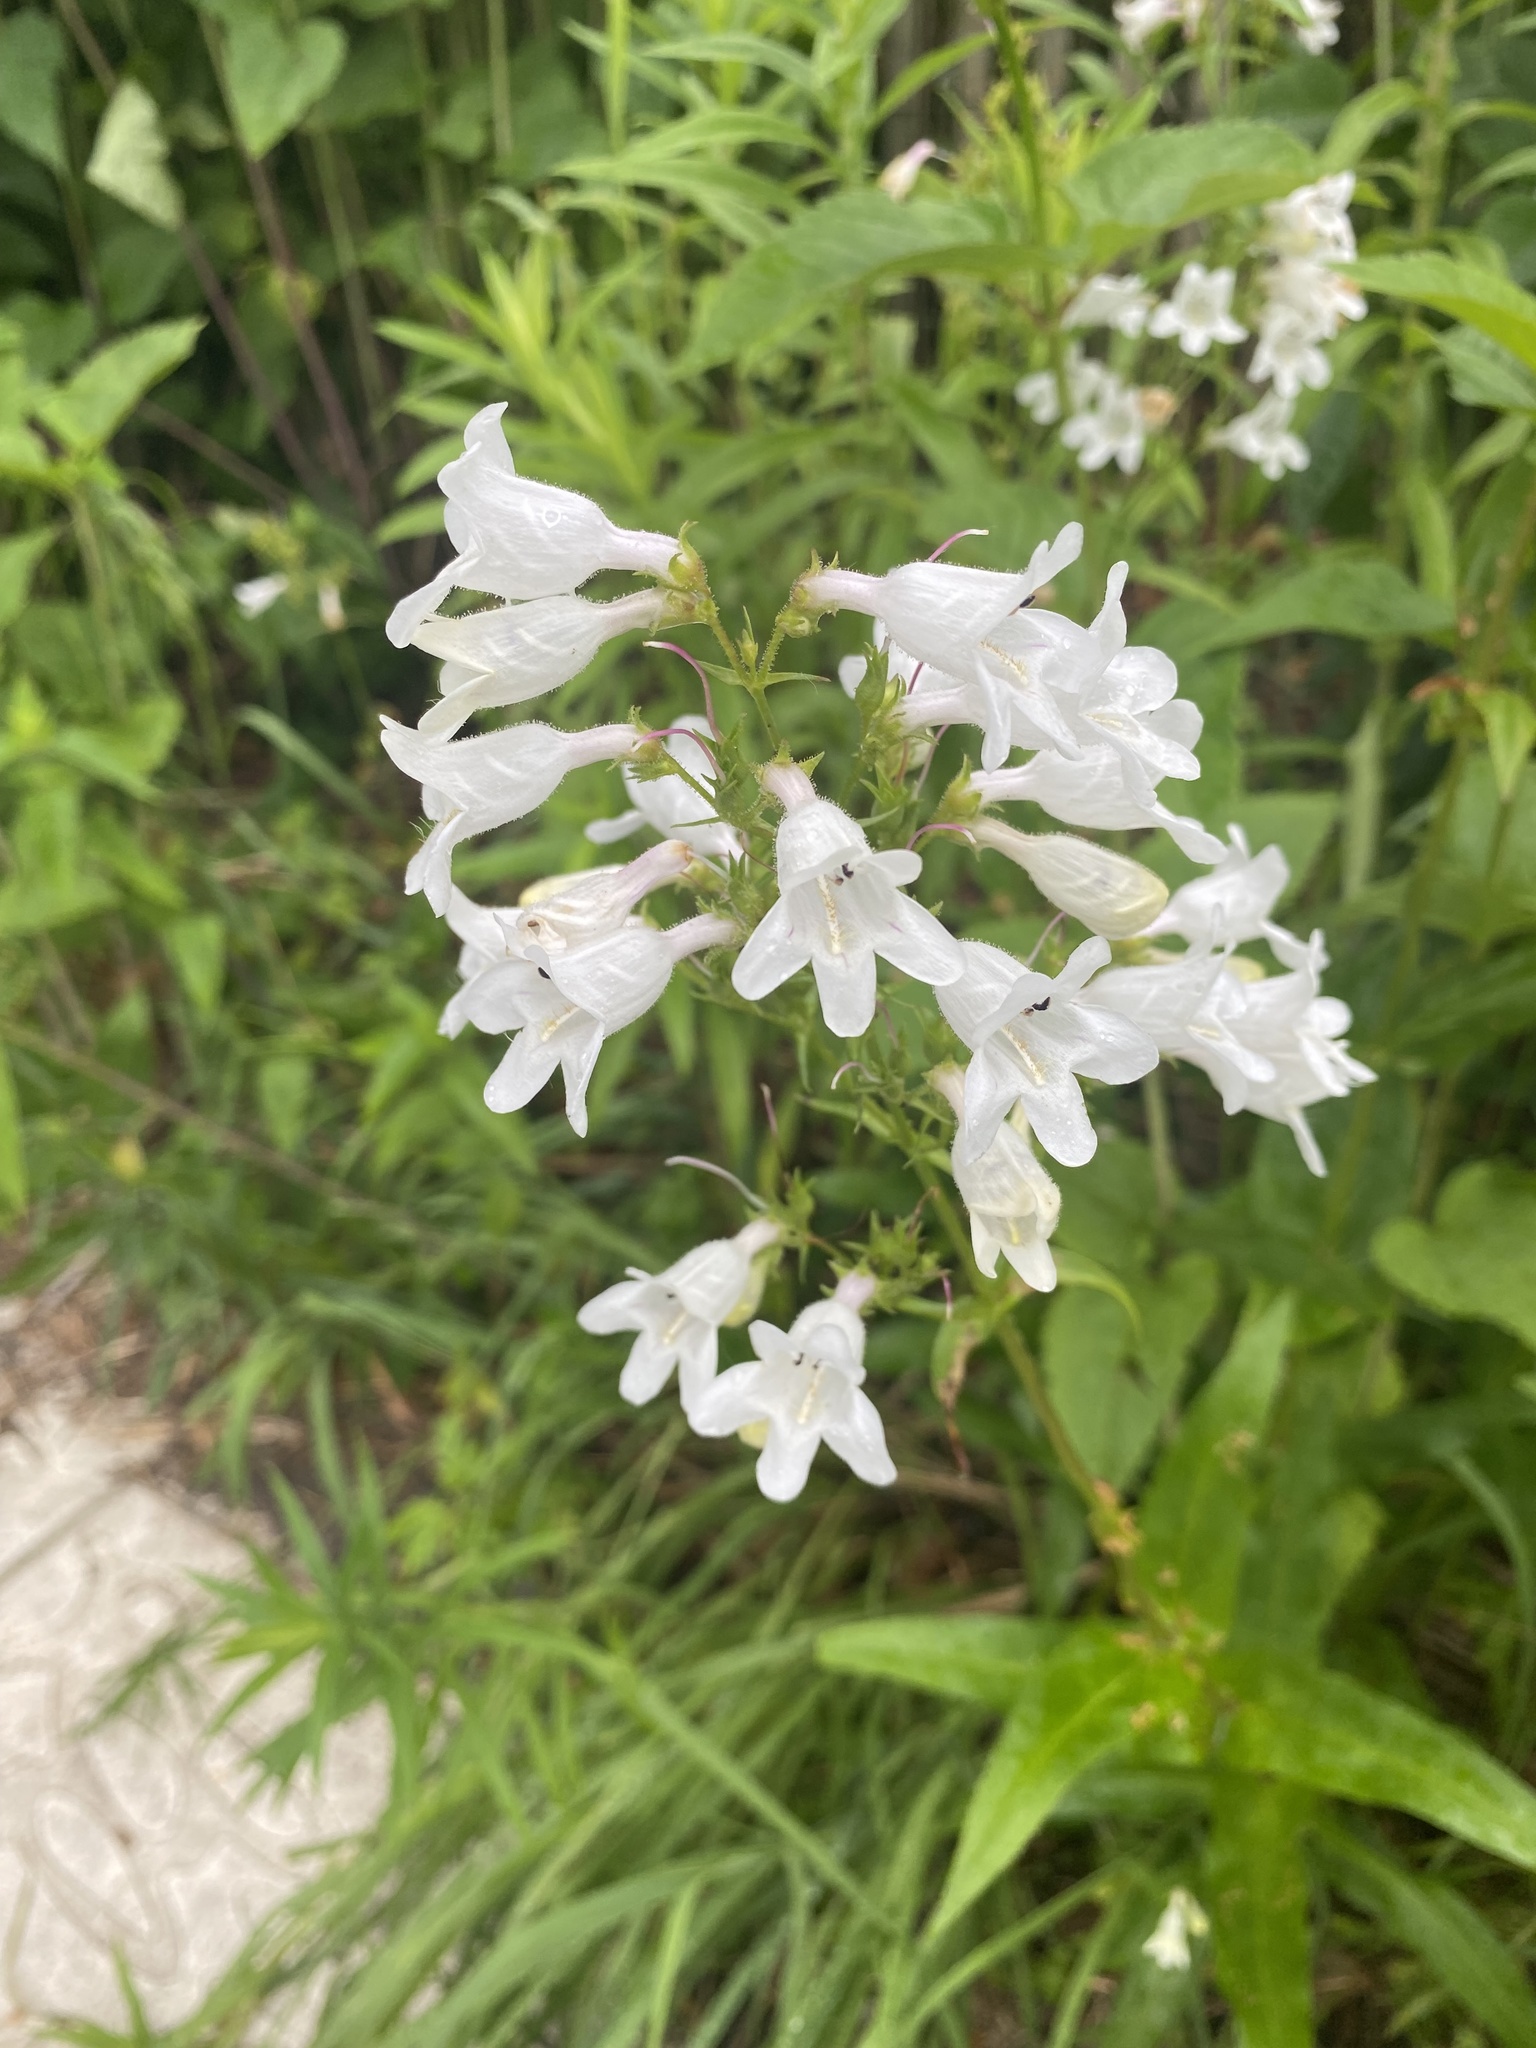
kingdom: Plantae
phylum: Tracheophyta
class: Magnoliopsida
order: Lamiales
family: Plantaginaceae
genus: Penstemon
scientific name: Penstemon digitalis
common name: Foxglove beardtongue
